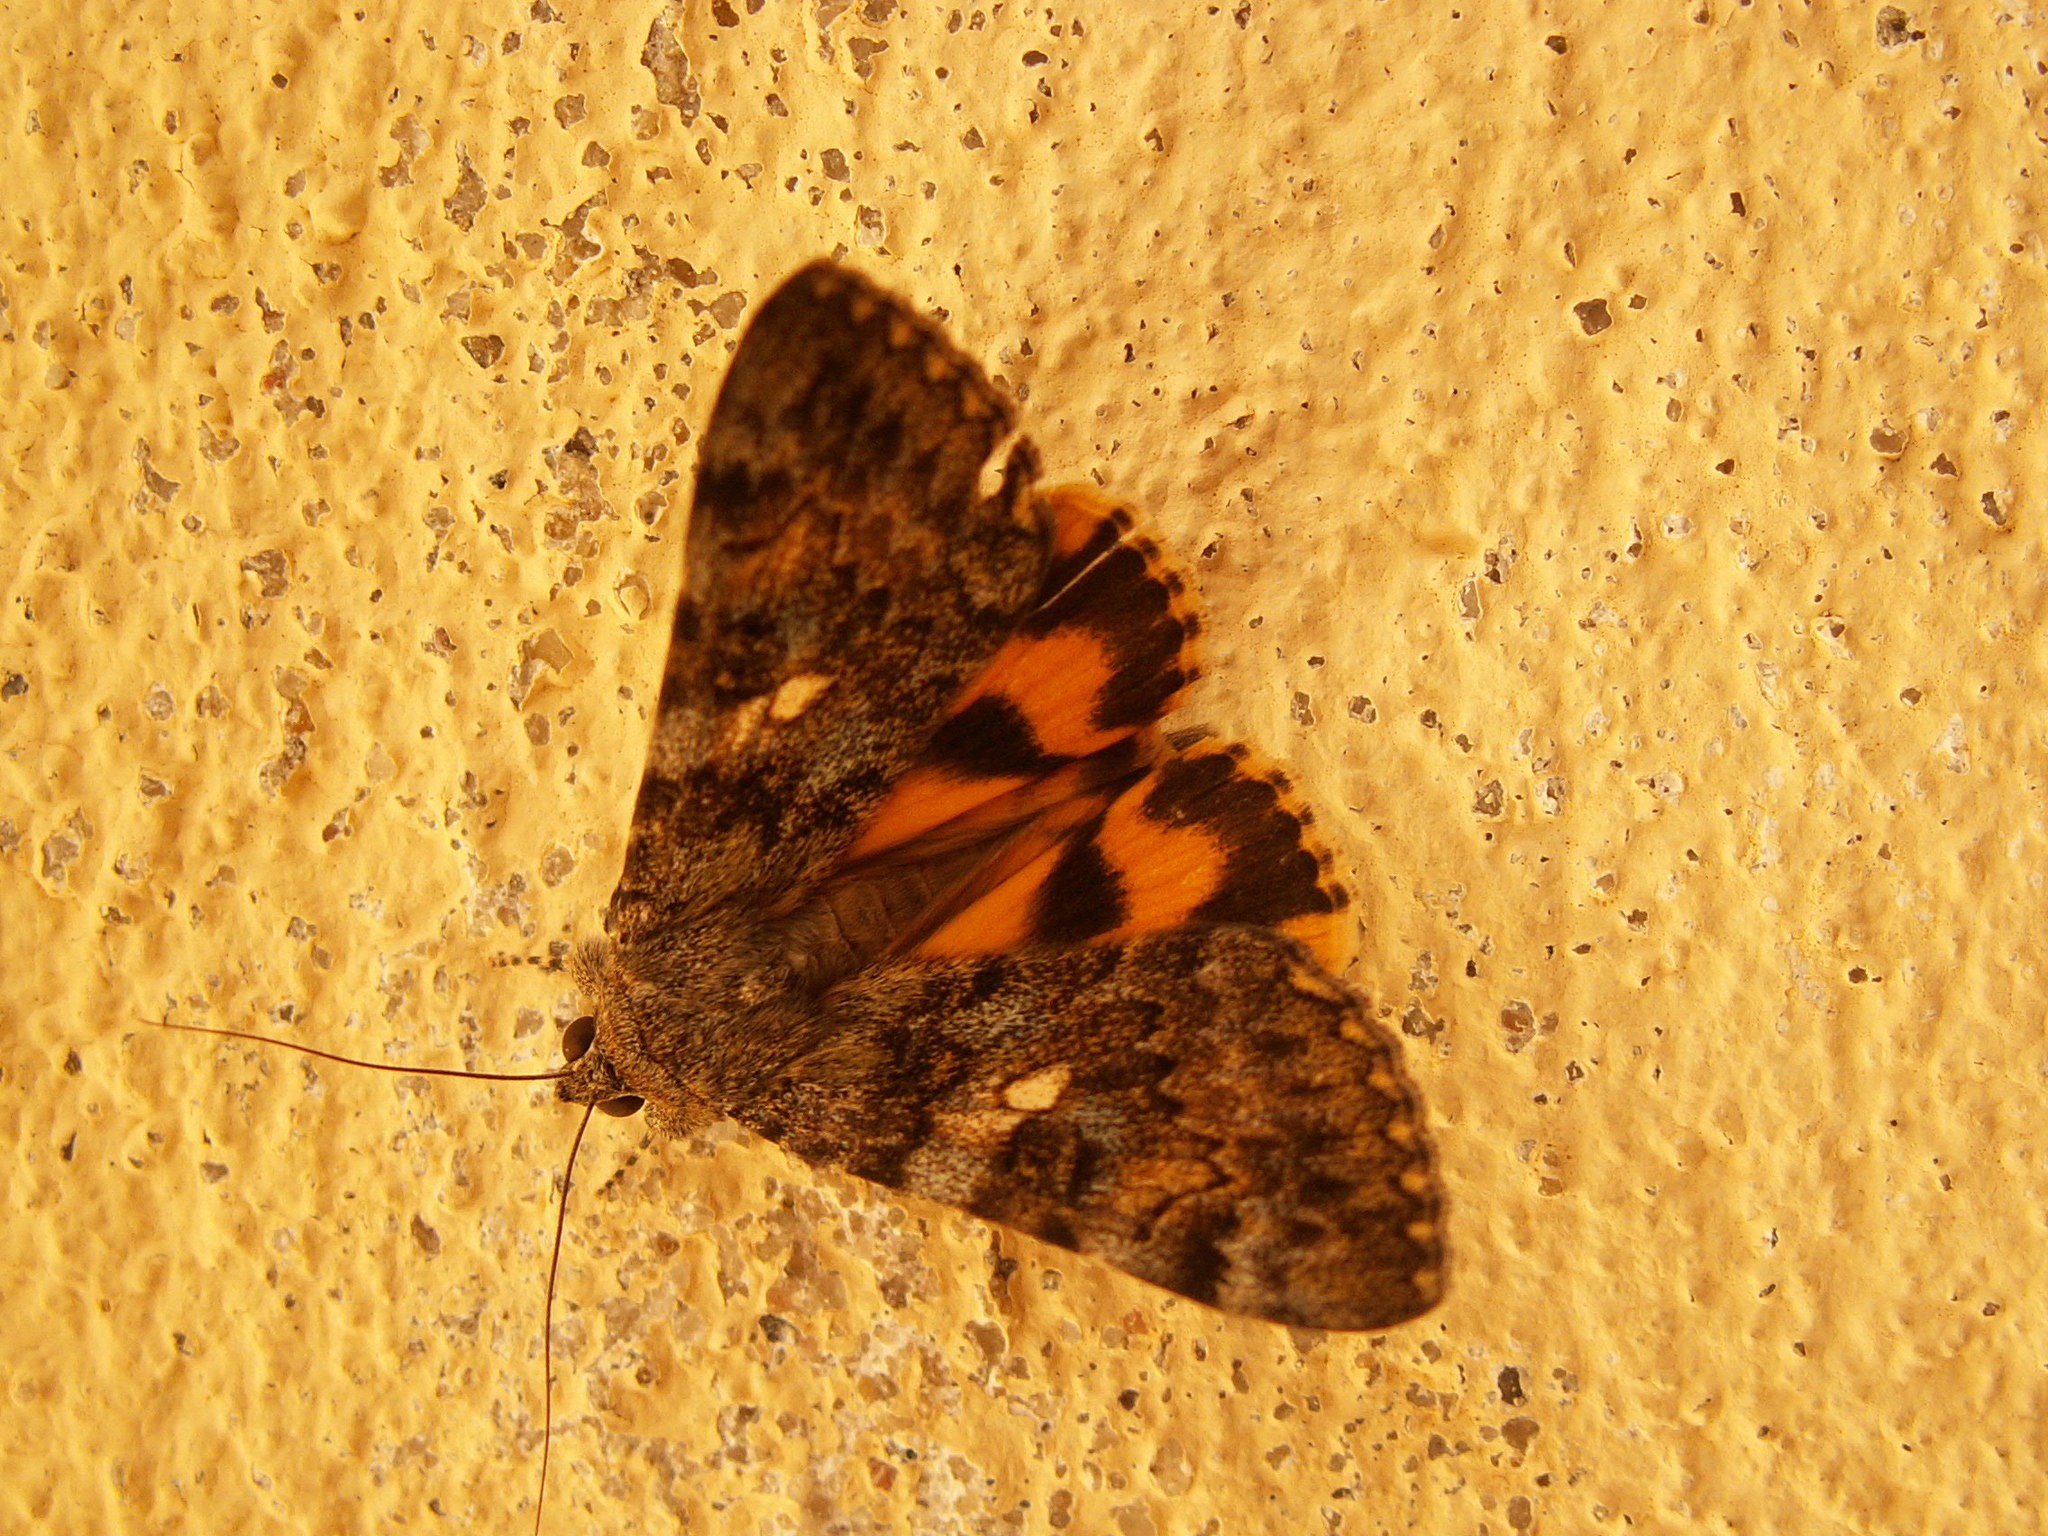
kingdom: Animalia
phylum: Arthropoda
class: Insecta
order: Lepidoptera
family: Erebidae
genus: Catocala
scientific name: Catocala nymphaea
